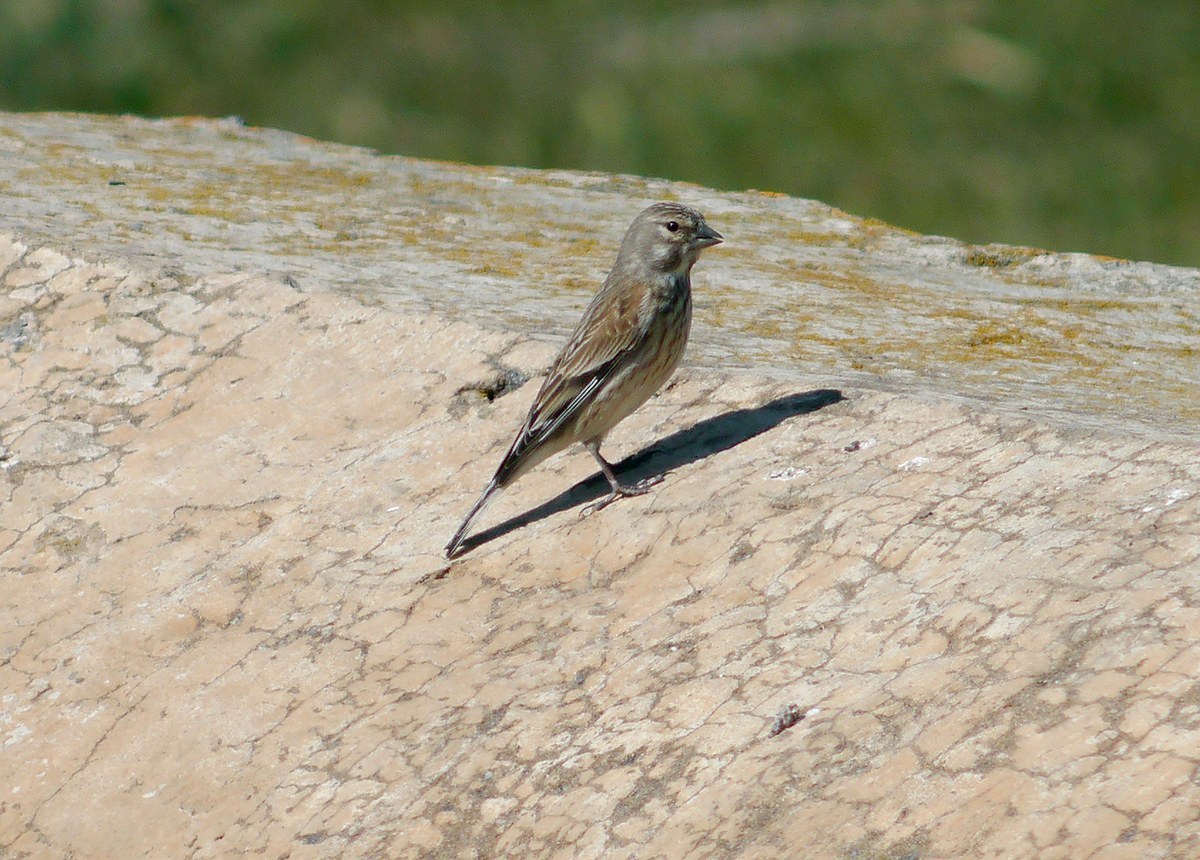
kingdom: Animalia
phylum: Chordata
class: Aves
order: Passeriformes
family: Fringillidae
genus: Linaria
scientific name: Linaria cannabina
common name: Common linnet
